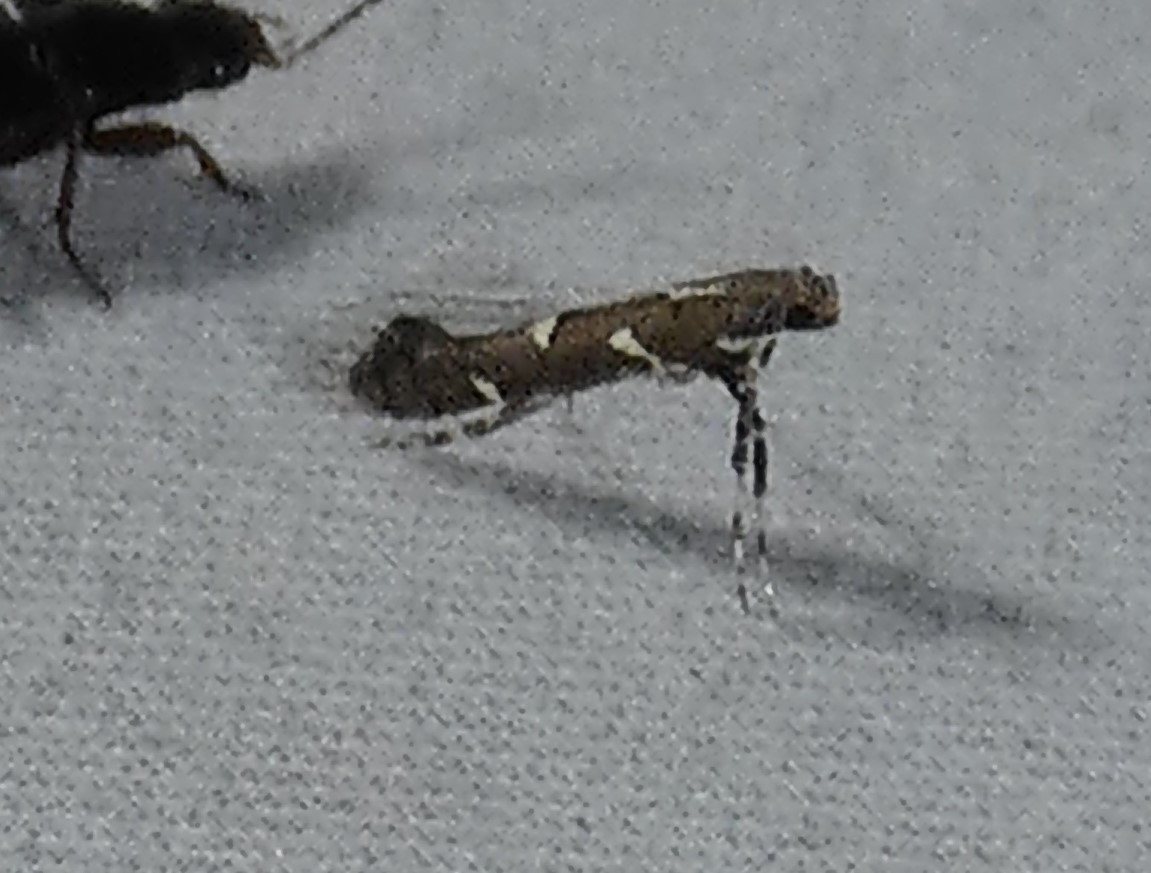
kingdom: Animalia
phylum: Arthropoda
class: Insecta
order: Lepidoptera
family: Gracillariidae
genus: Caloptilia
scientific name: Caloptilia triadicae
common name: Tallow leaf roller
